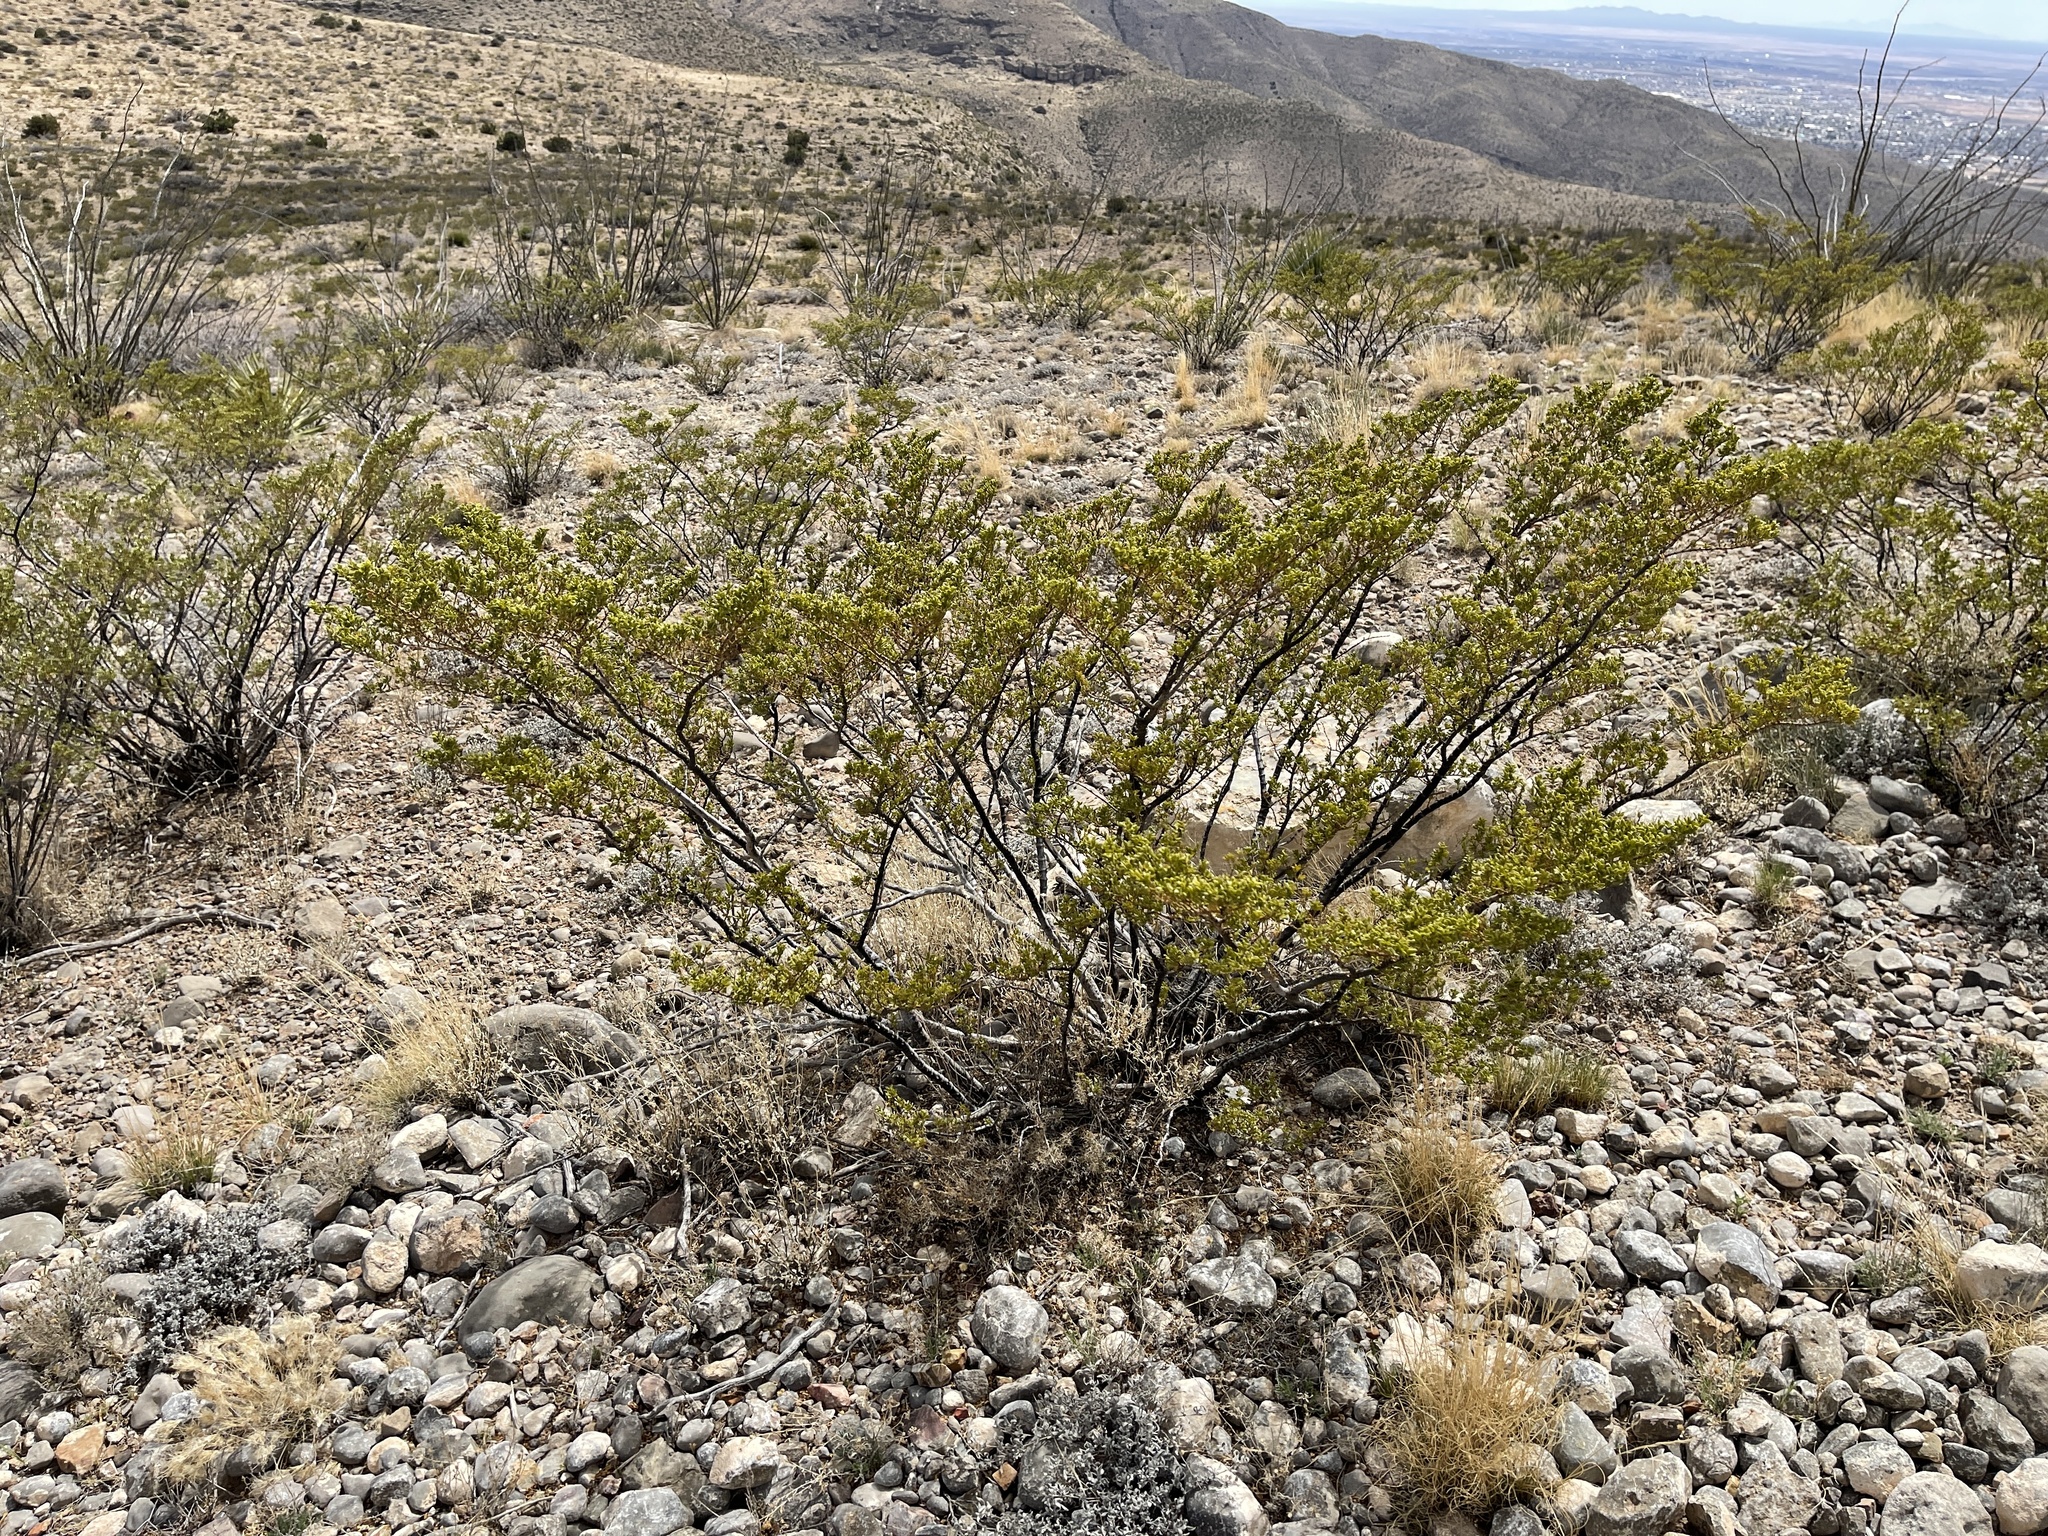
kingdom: Plantae
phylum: Tracheophyta
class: Magnoliopsida
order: Zygophyllales
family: Zygophyllaceae
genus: Larrea
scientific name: Larrea tridentata
